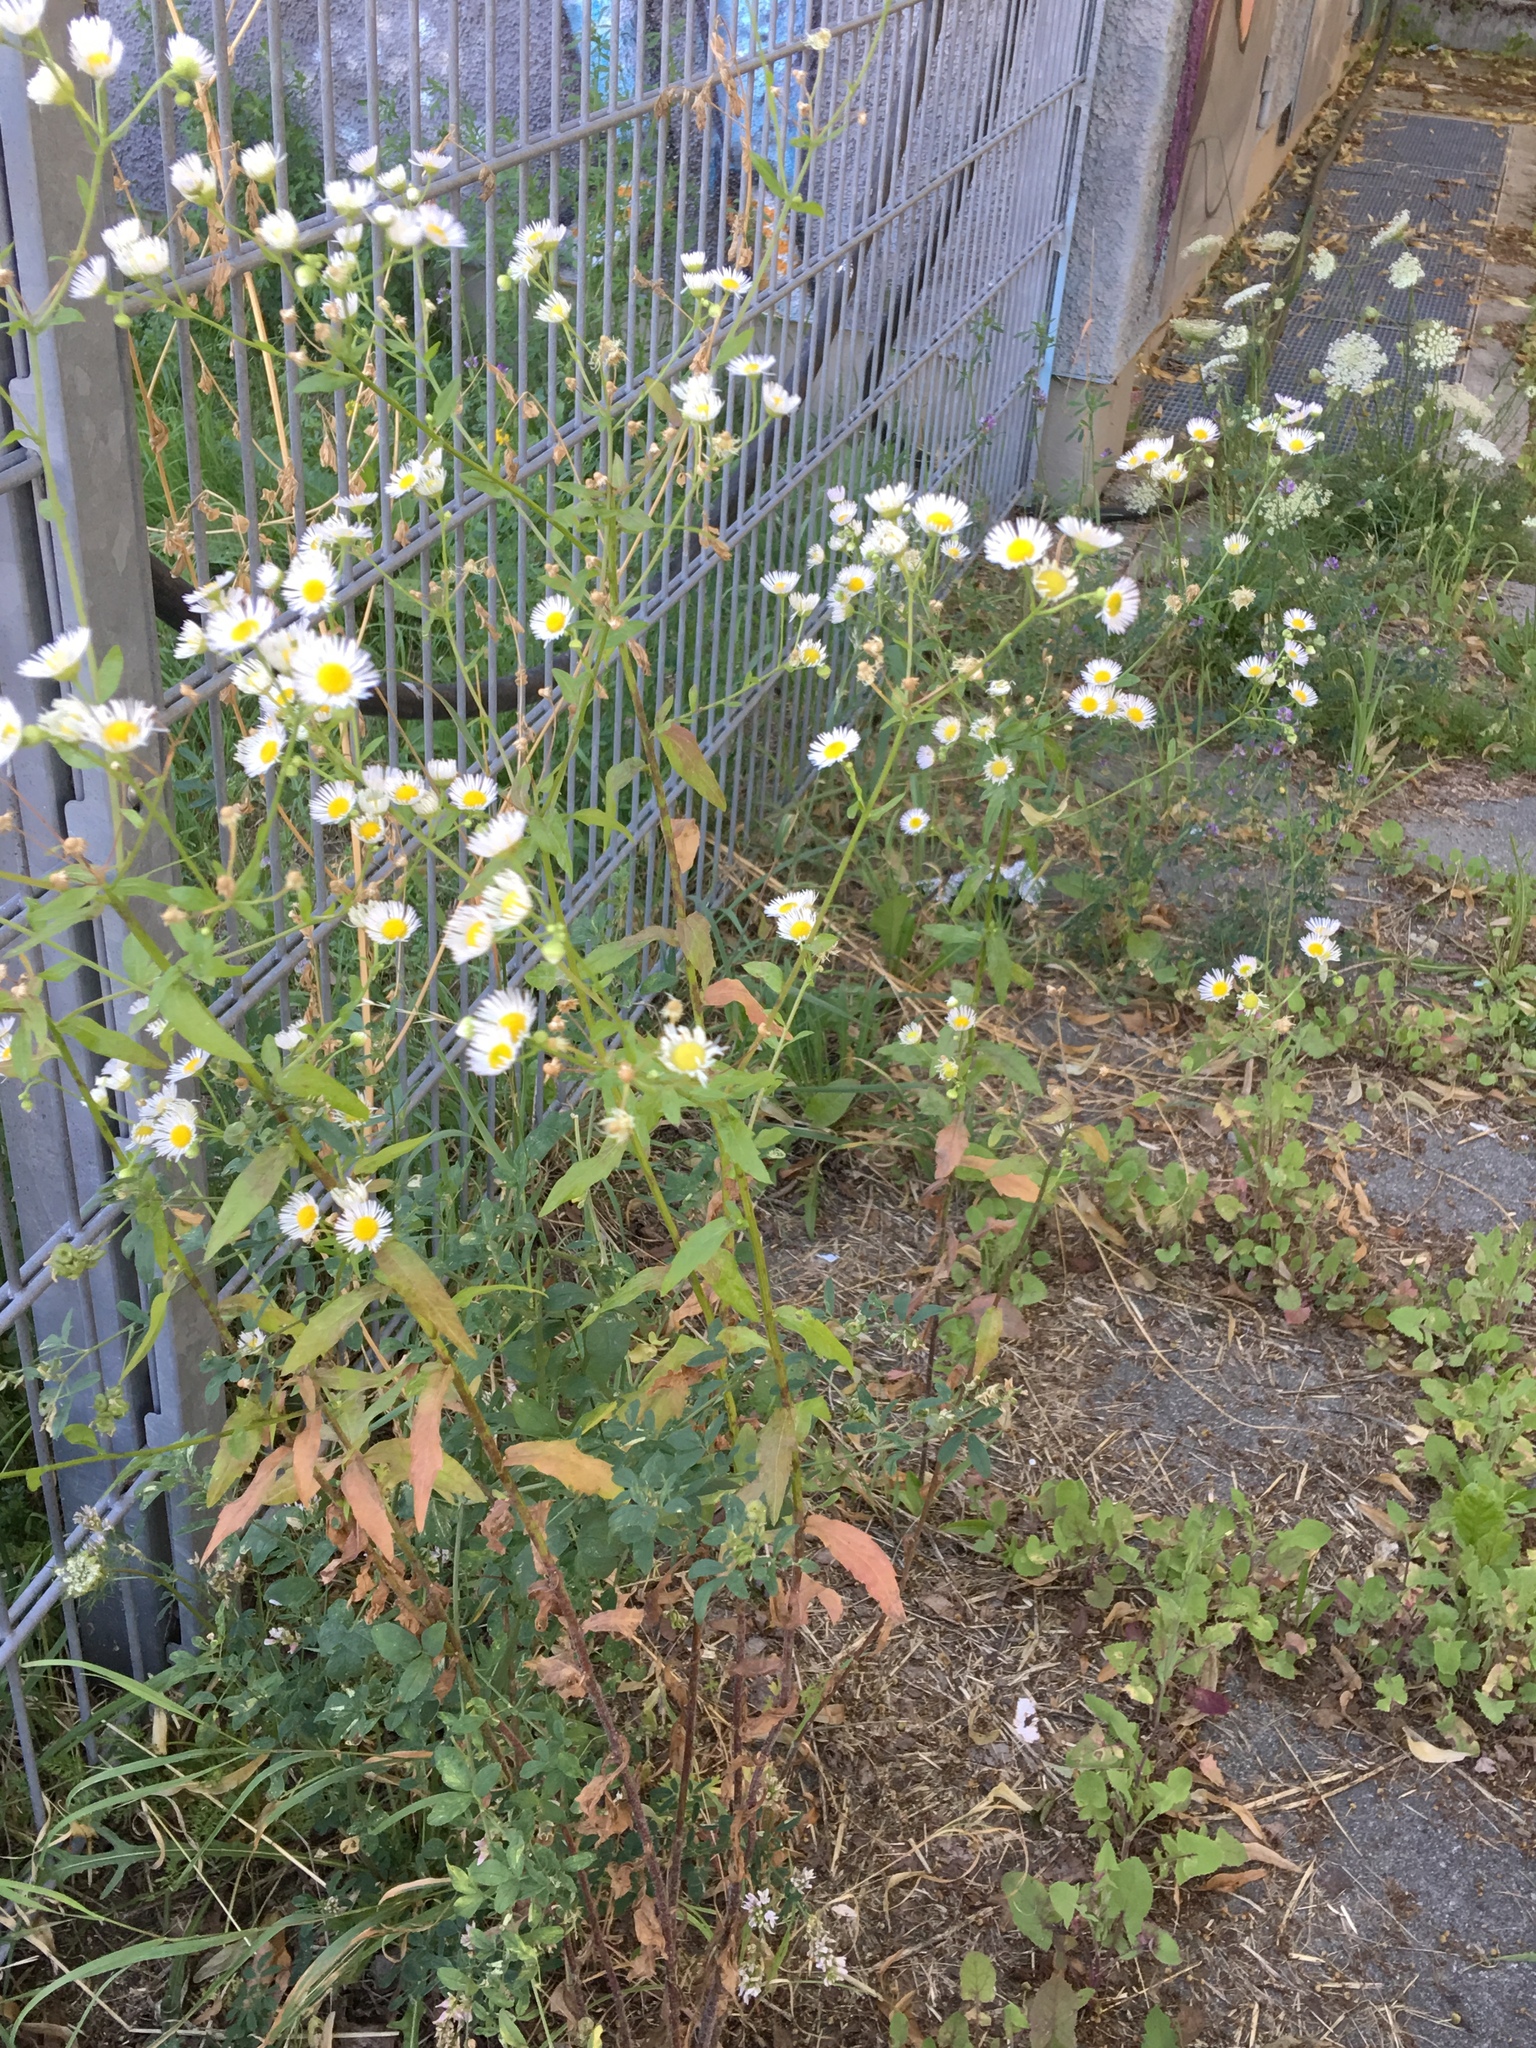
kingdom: Plantae
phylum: Tracheophyta
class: Magnoliopsida
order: Asterales
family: Asteraceae
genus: Erigeron
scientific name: Erigeron annuus
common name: Tall fleabane
